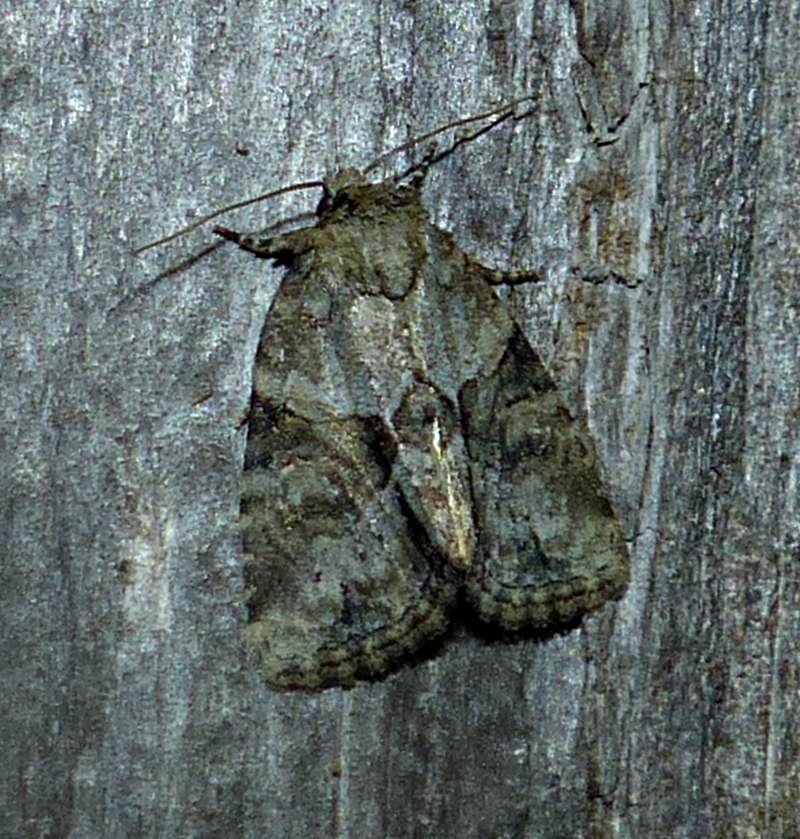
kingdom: Animalia
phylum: Arthropoda
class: Insecta
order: Lepidoptera
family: Noctuidae
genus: Neoligia
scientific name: Neoligia exhausta
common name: Exhausted brocade
